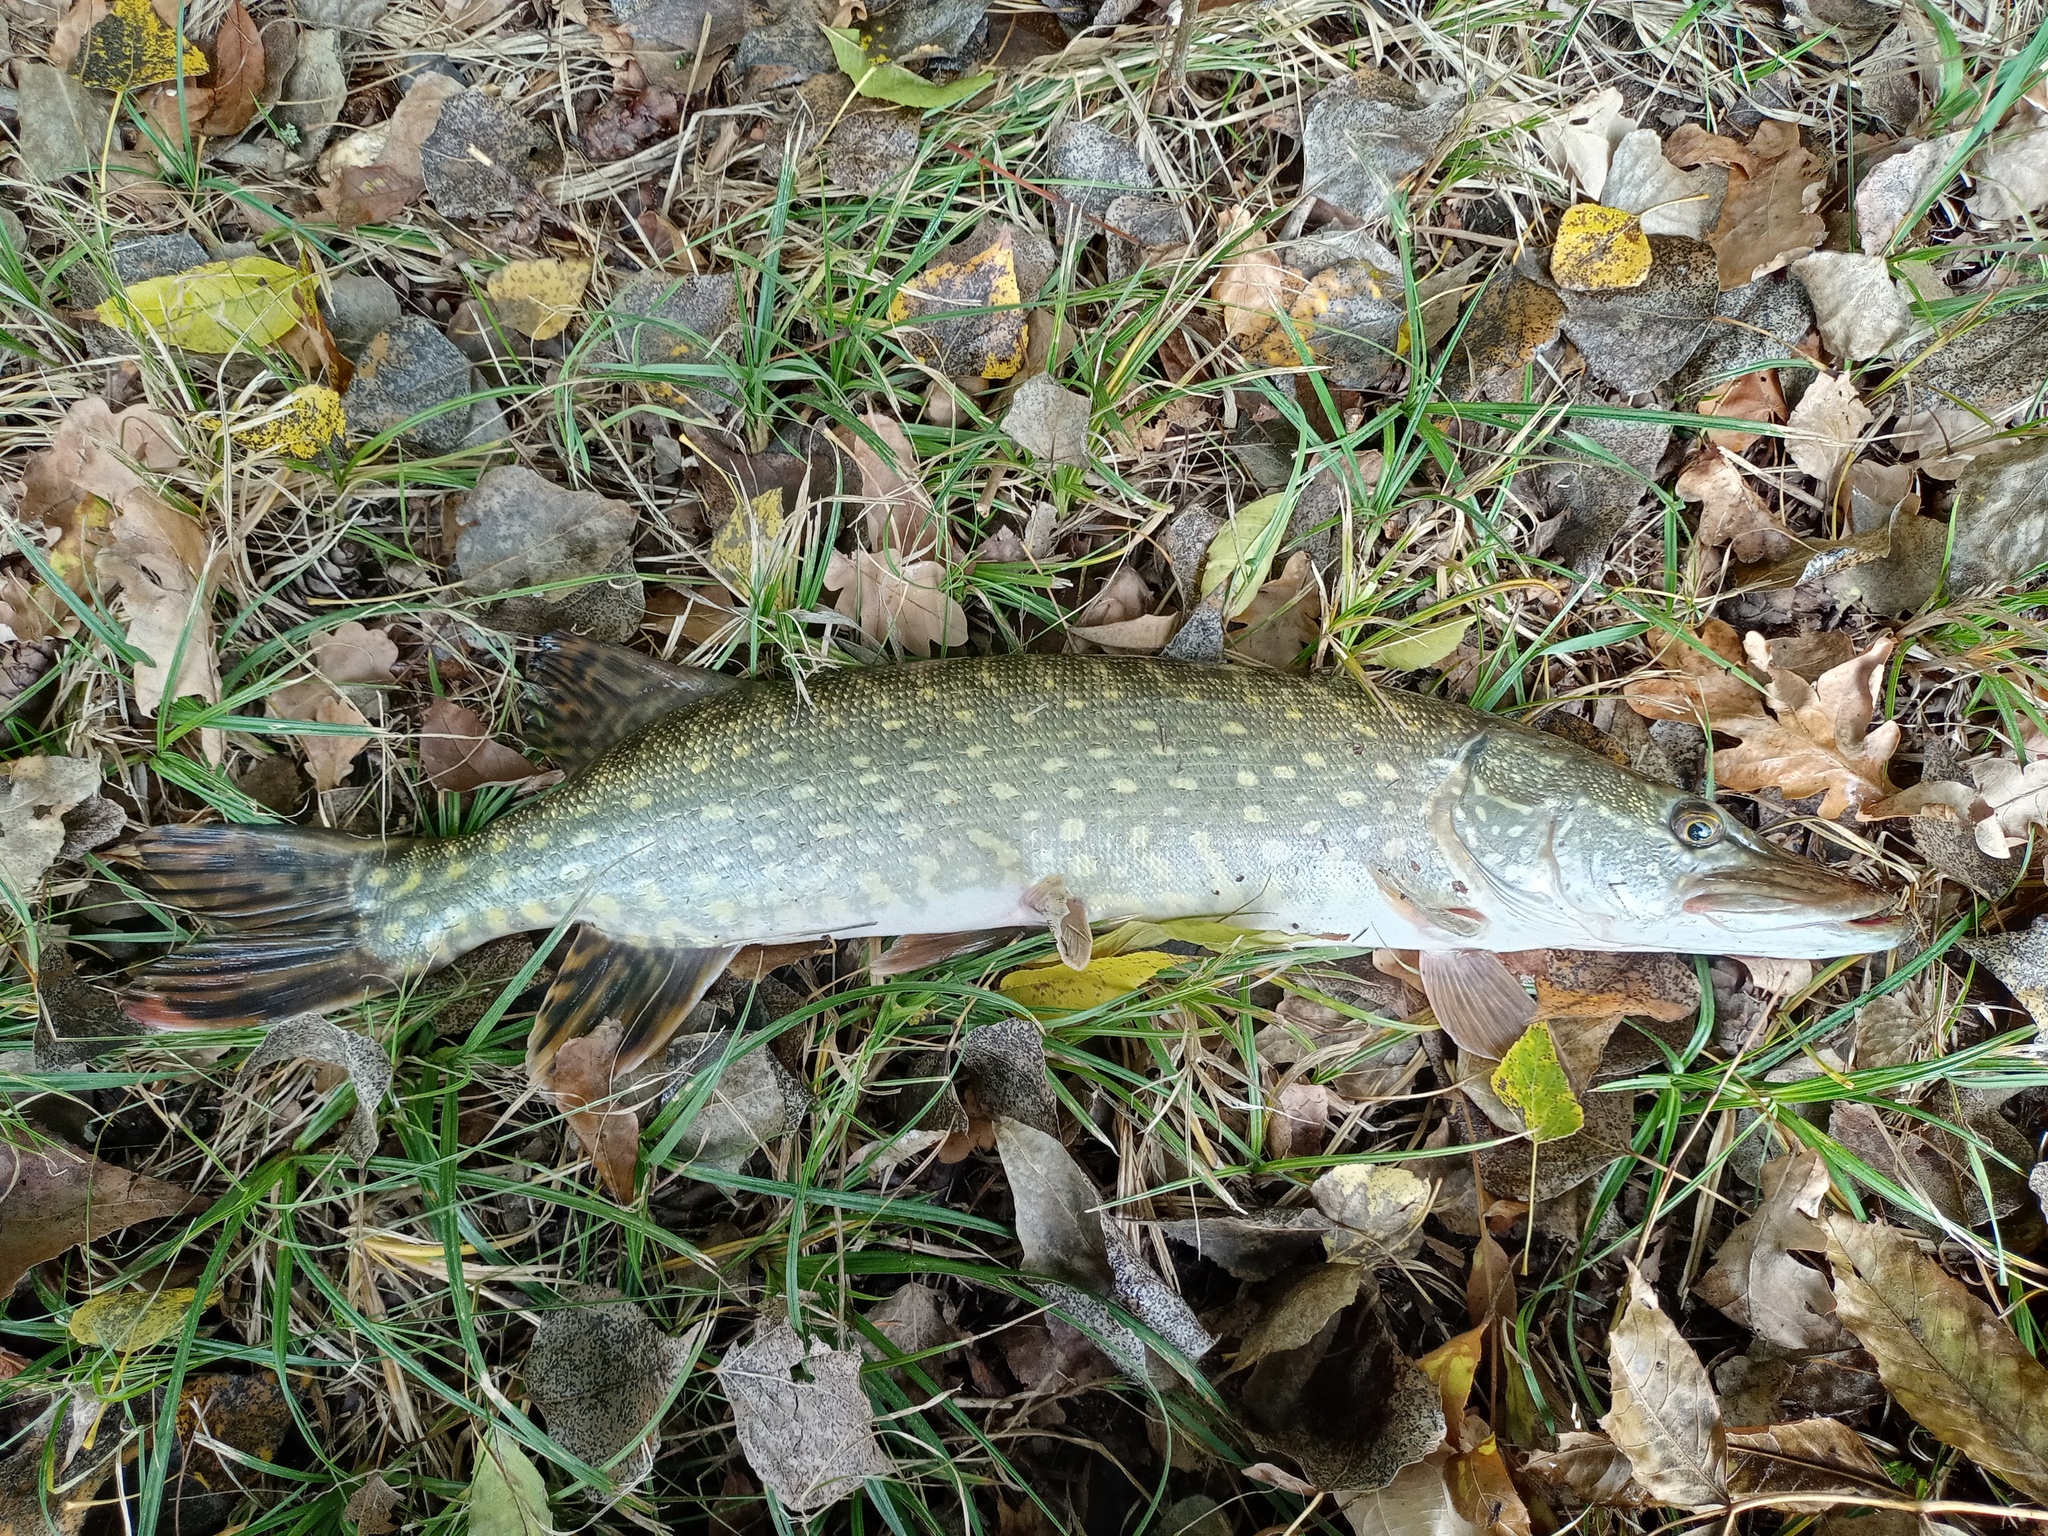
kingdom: Animalia
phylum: Chordata
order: Esociformes
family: Esocidae
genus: Esox
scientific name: Esox lucius
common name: Northern pike
